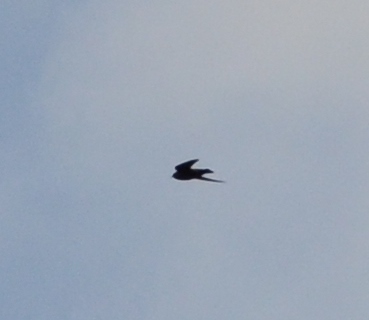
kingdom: Animalia
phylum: Chordata
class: Aves
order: Passeriformes
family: Hirundinidae
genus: Ptyonoprogne
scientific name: Ptyonoprogne rupestris
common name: Eurasian crag martin
